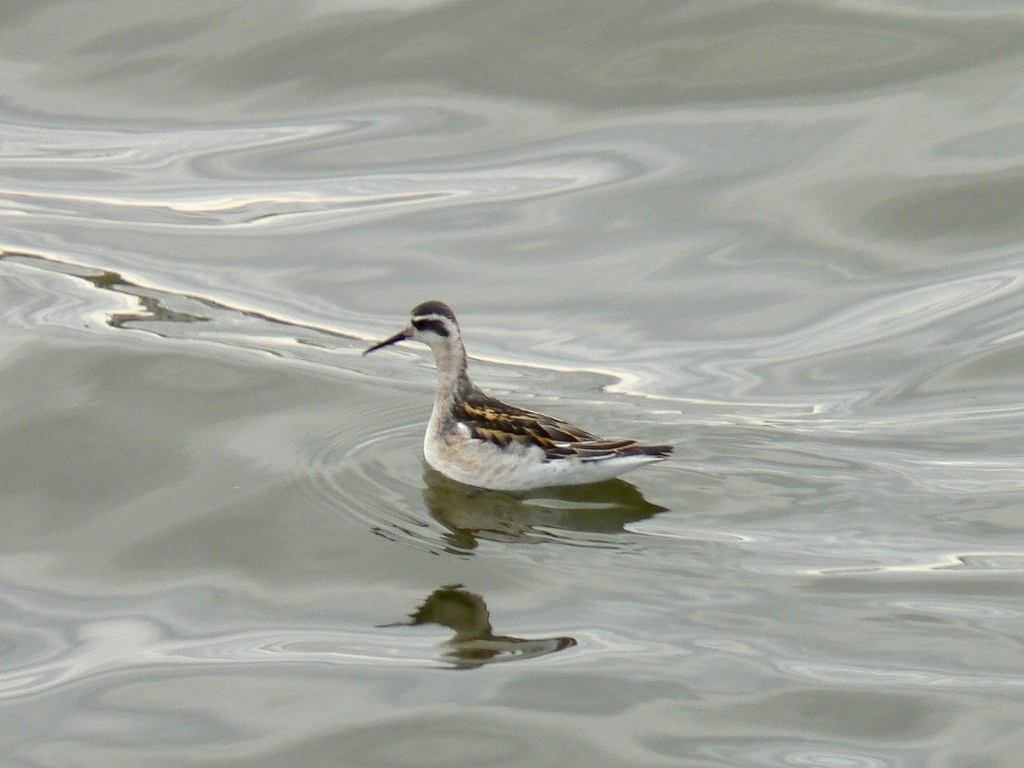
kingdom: Animalia
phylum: Chordata
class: Aves
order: Charadriiformes
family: Scolopacidae
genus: Phalaropus
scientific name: Phalaropus lobatus
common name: Red-necked phalarope
